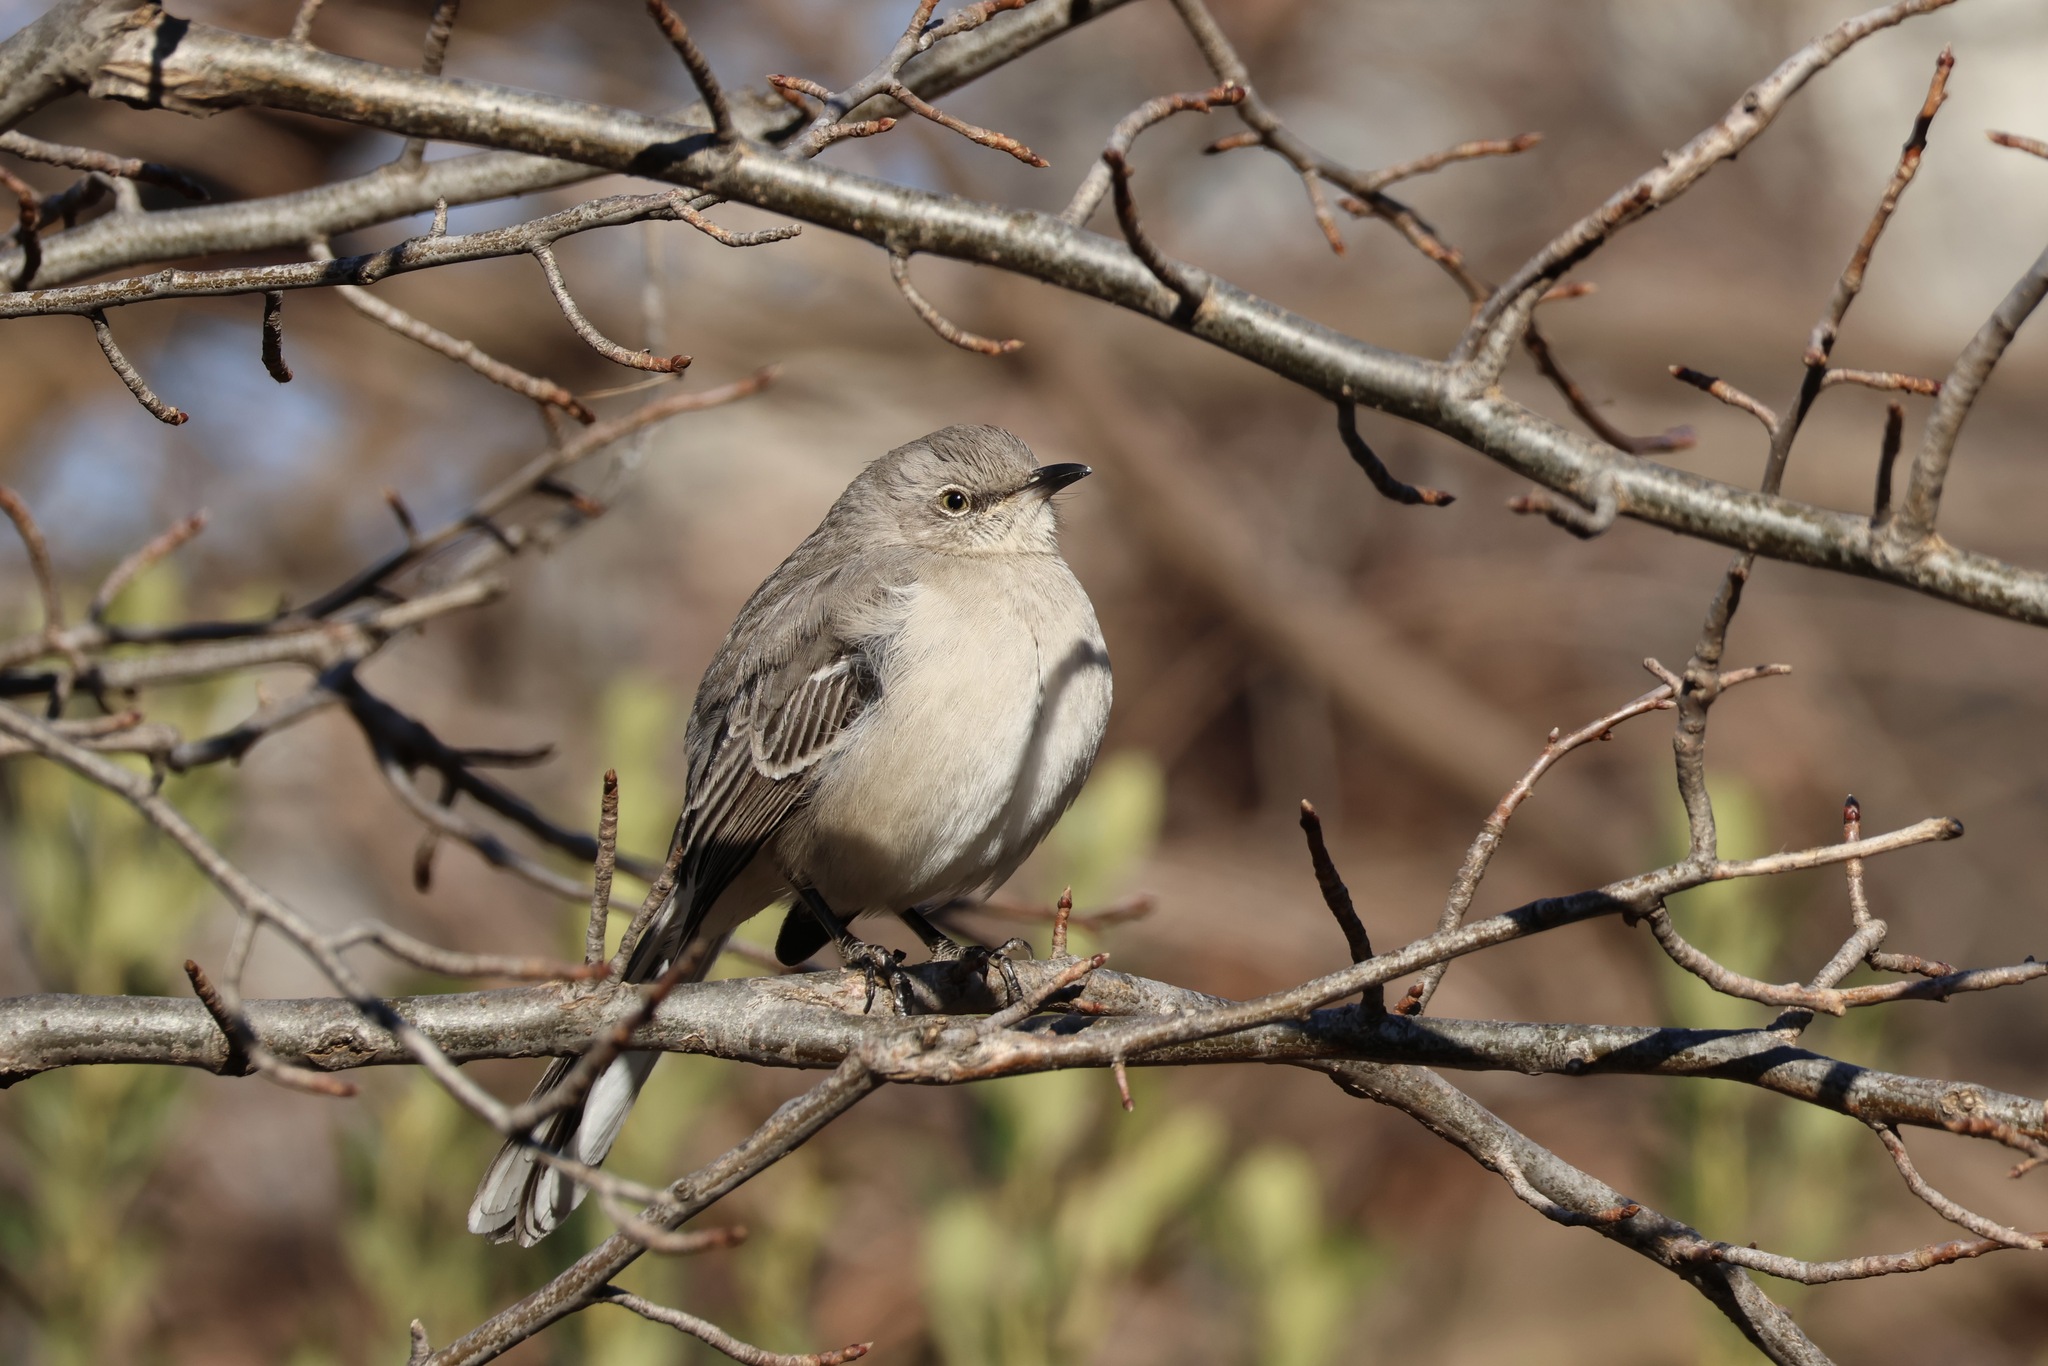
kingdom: Animalia
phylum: Chordata
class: Aves
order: Passeriformes
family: Mimidae
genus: Mimus
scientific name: Mimus polyglottos
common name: Northern mockingbird
